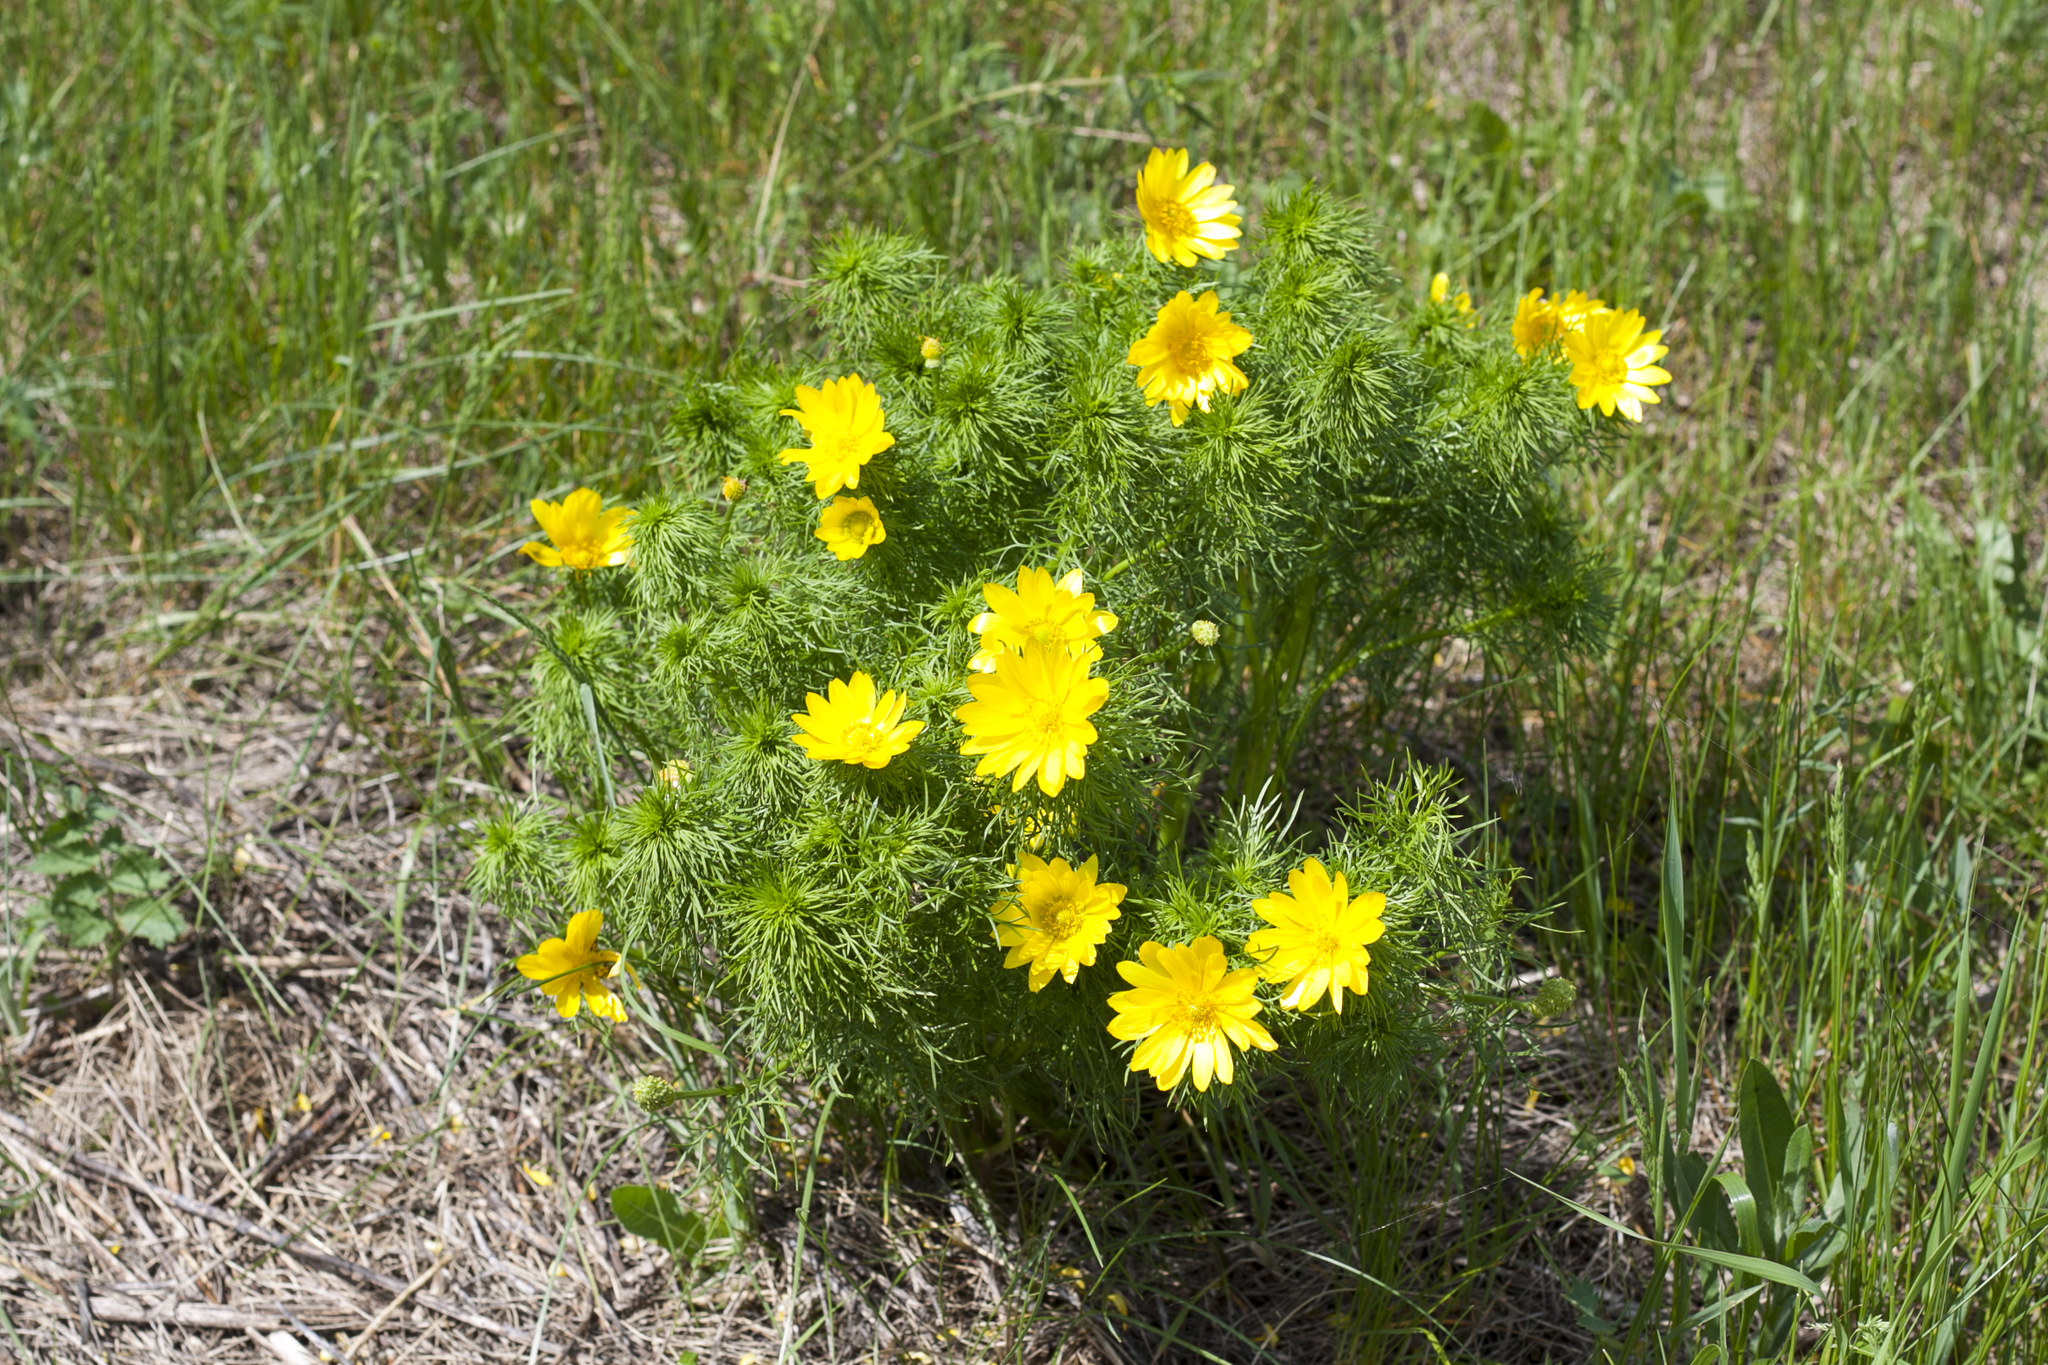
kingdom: Plantae
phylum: Tracheophyta
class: Magnoliopsida
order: Ranunculales
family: Ranunculaceae
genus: Adonis
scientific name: Adonis vernalis
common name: Yellow pheasants-eye
